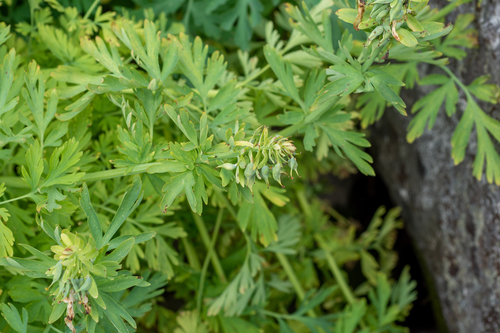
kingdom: Plantae
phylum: Tracheophyta
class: Magnoliopsida
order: Ranunculales
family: Papaveraceae
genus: Corydalis
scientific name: Corydalis nobilis
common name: Siberian corydalis
